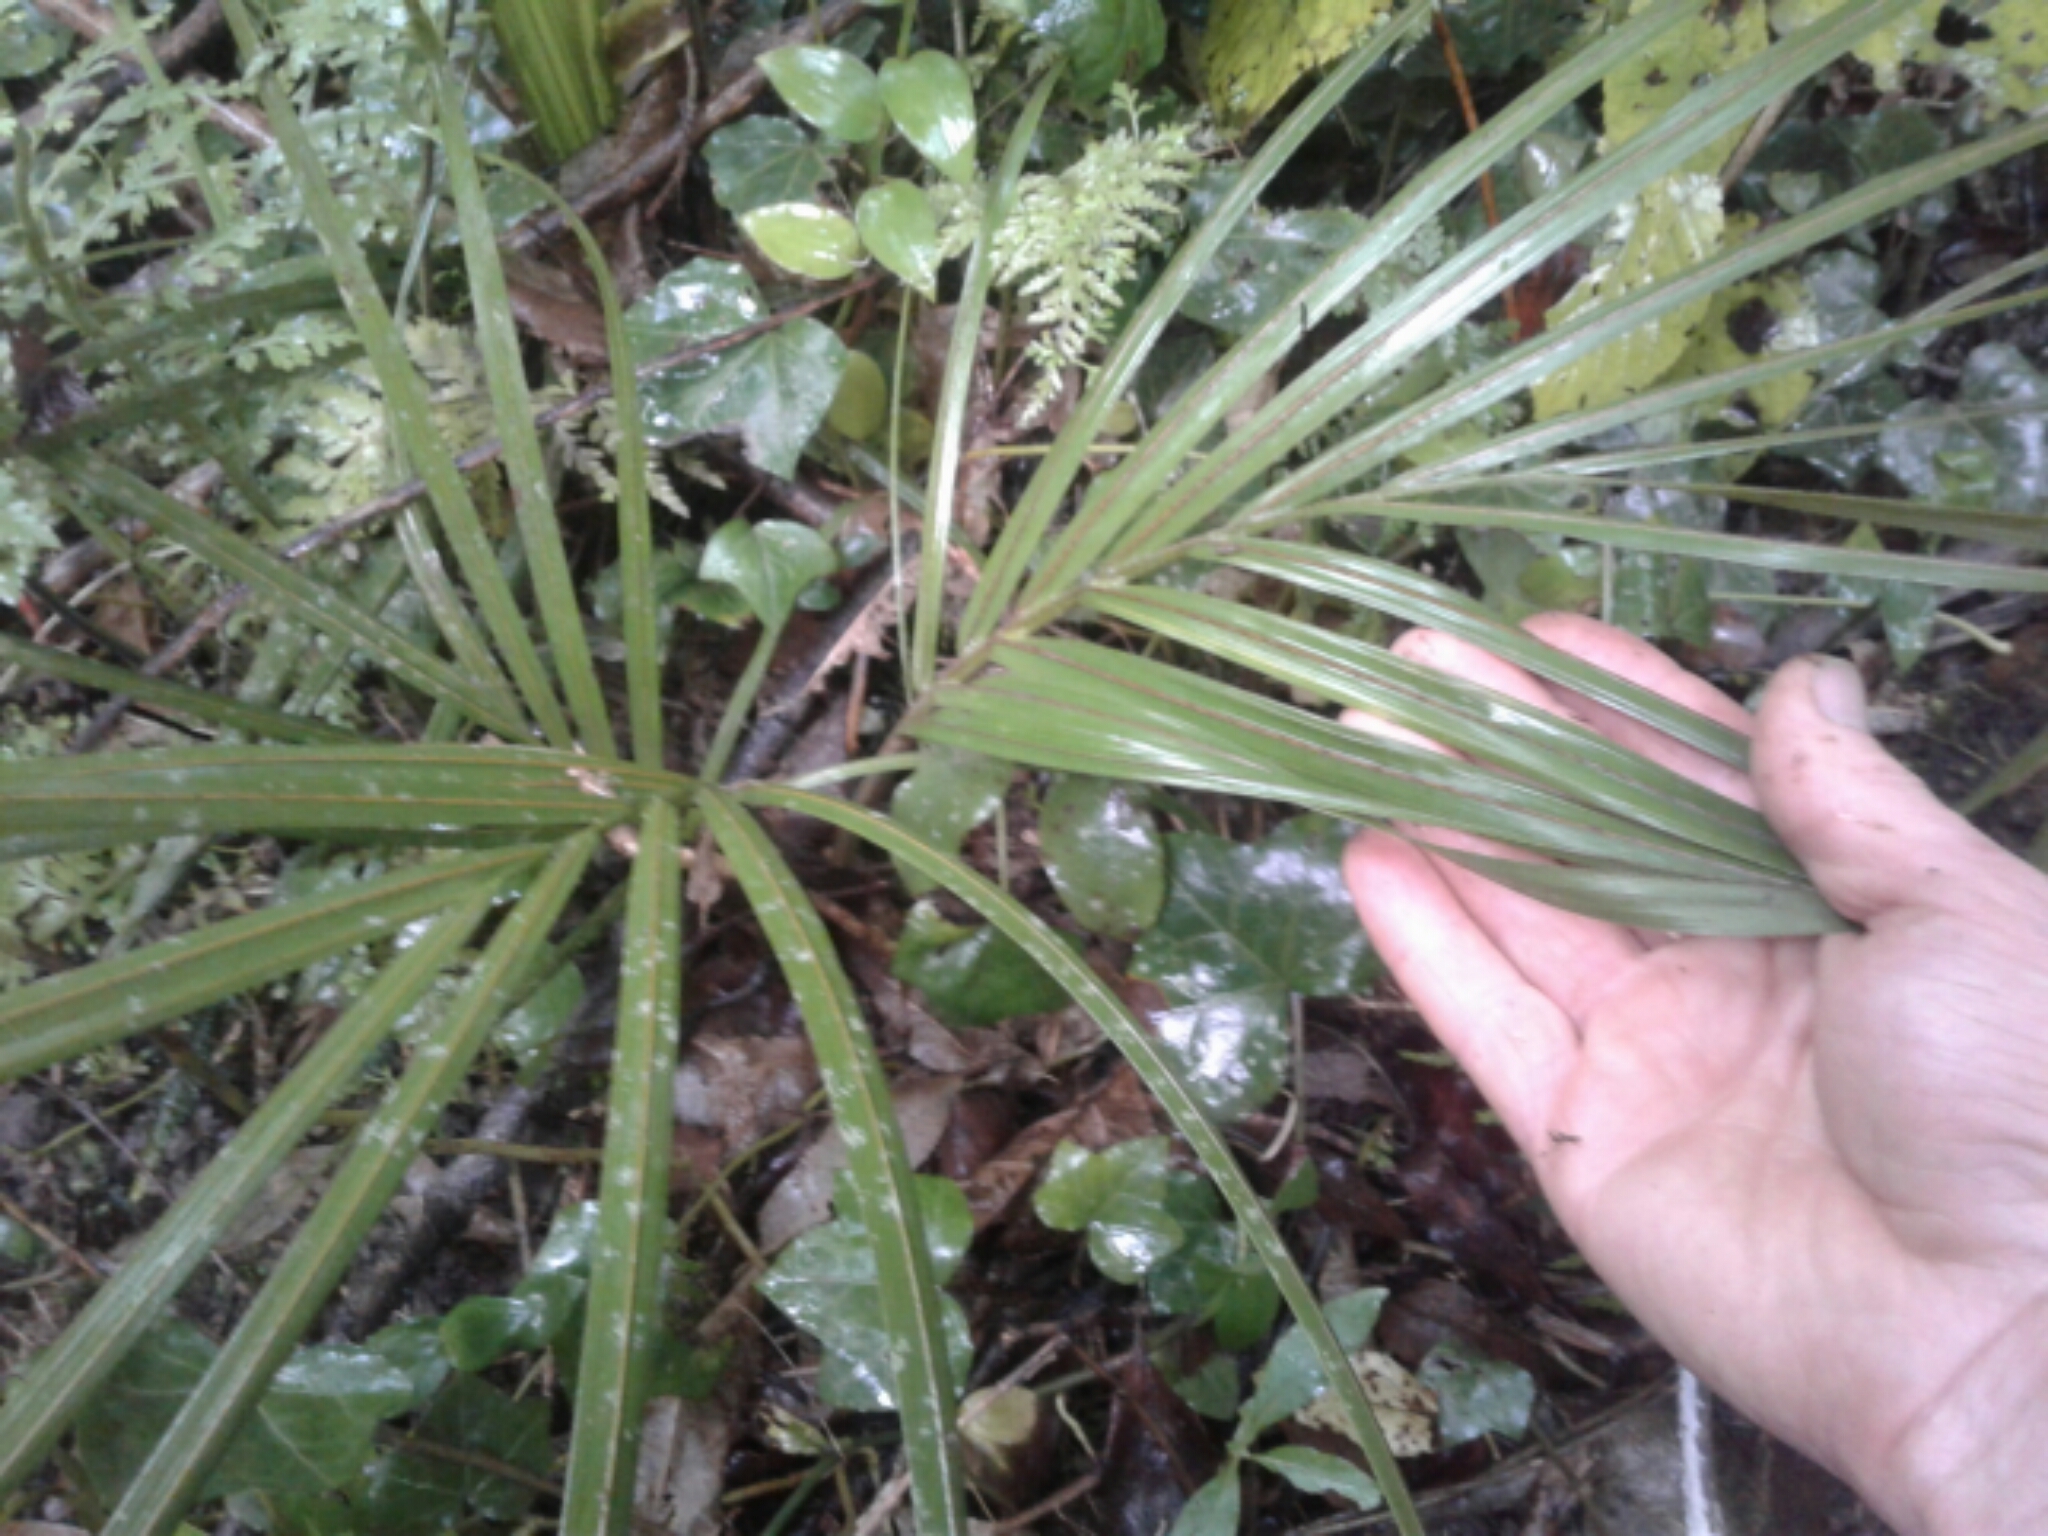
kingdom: Plantae
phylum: Tracheophyta
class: Liliopsida
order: Arecales
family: Arecaceae
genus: Rhopalostylis
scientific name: Rhopalostylis sapida
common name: Feather-duster palm
